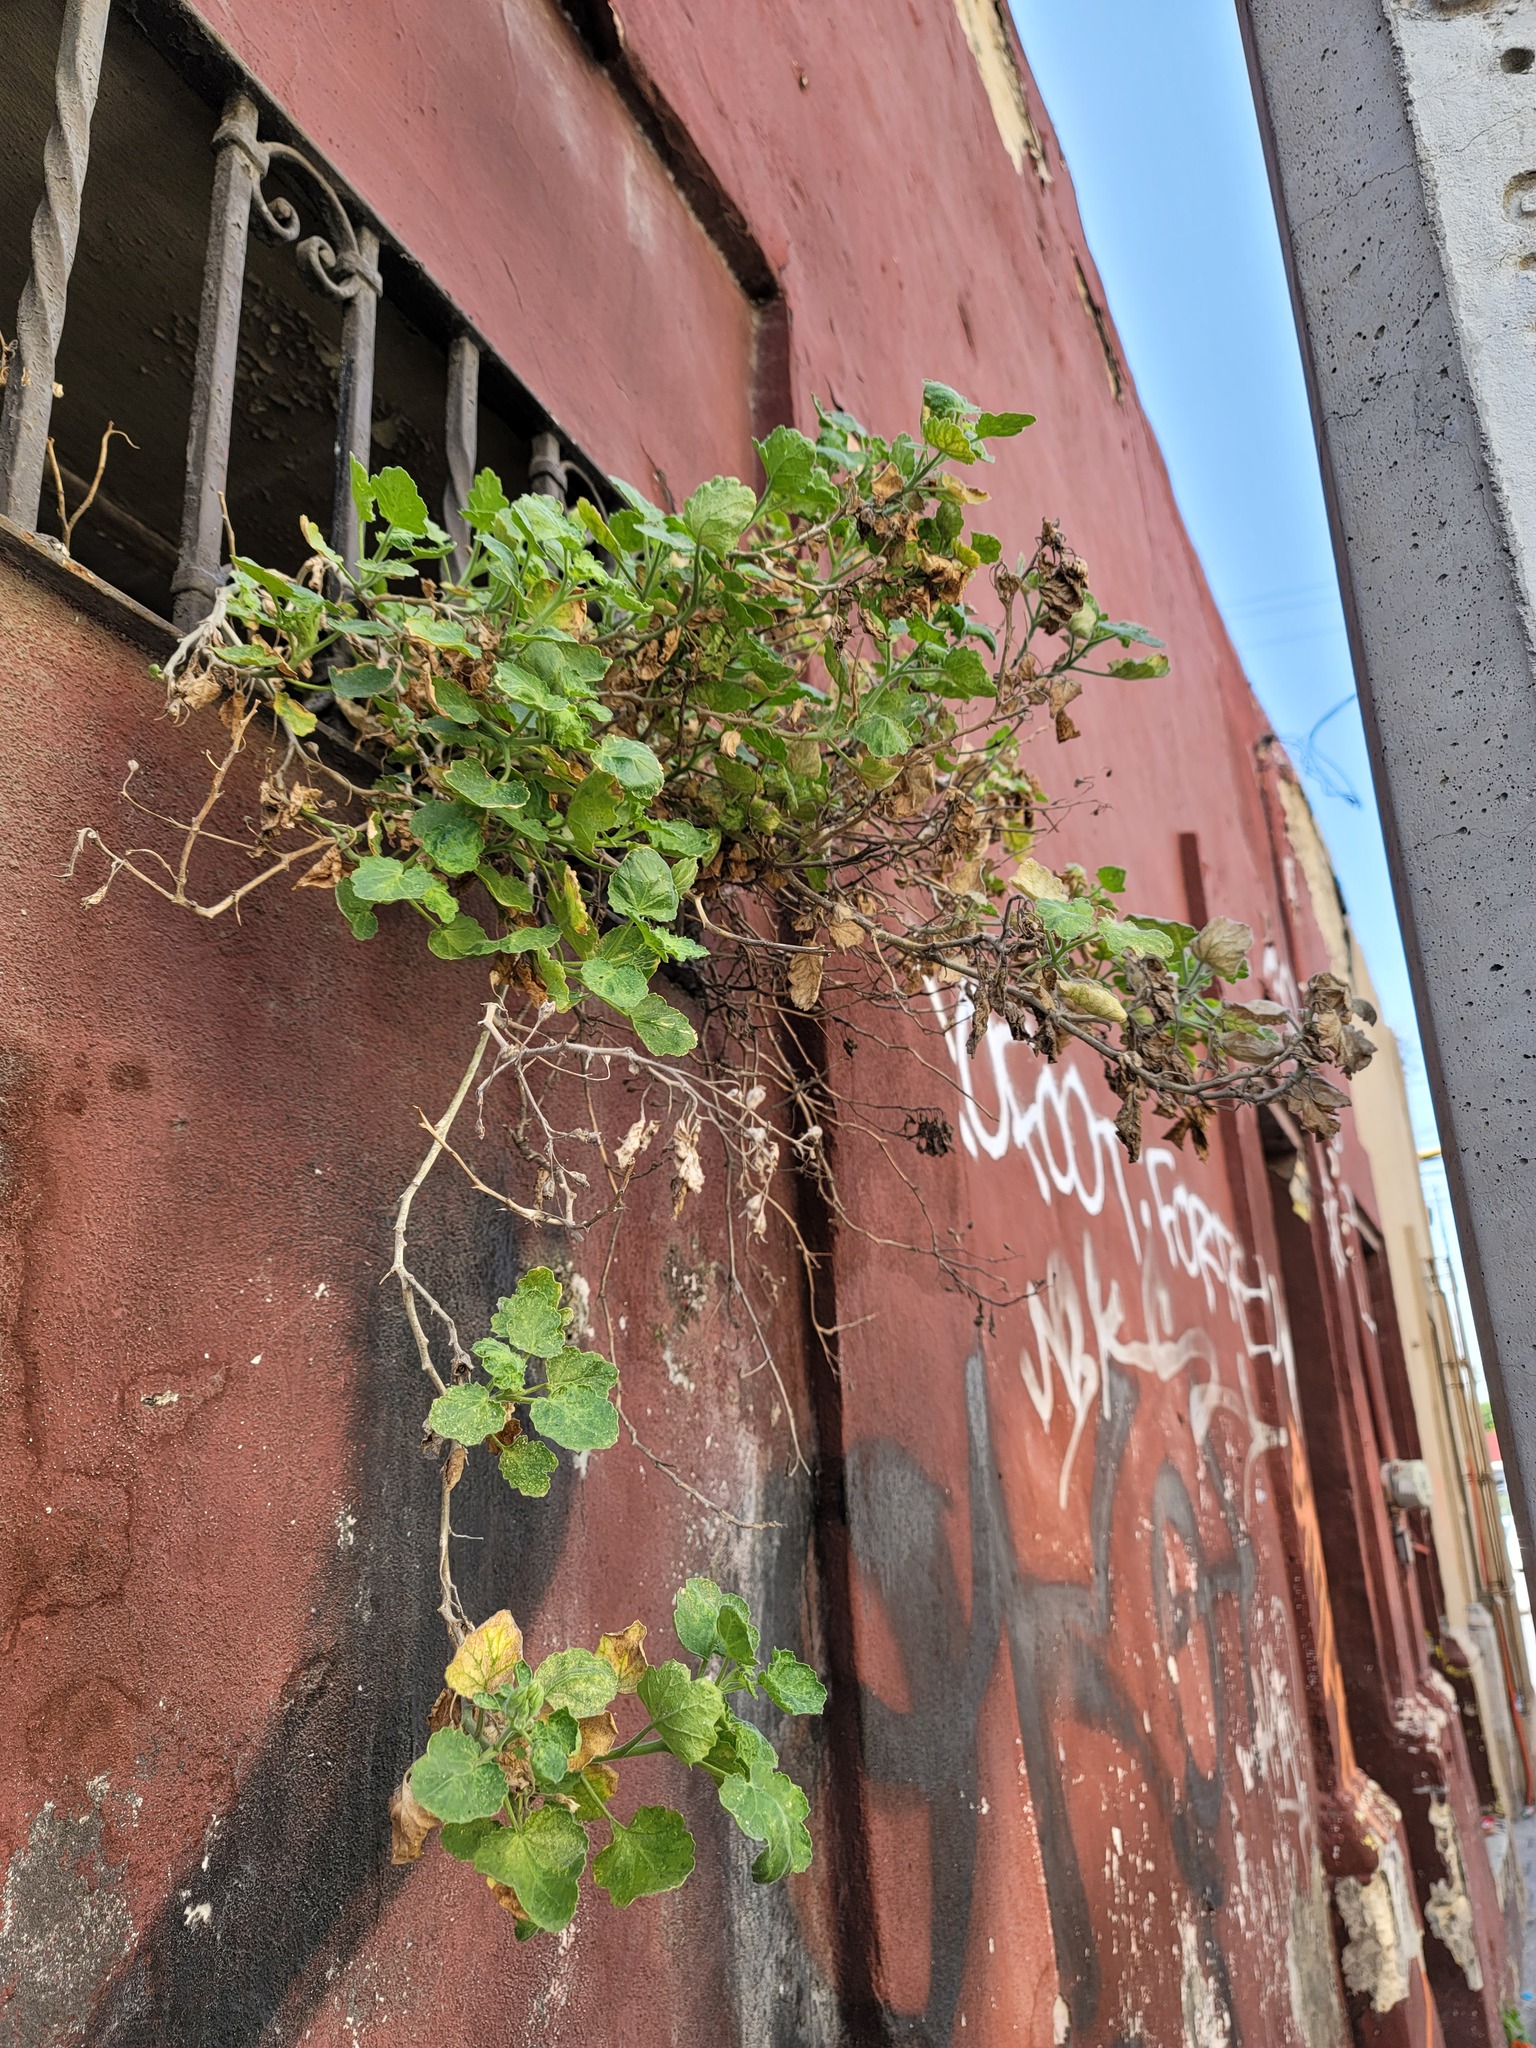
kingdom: Plantae
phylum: Tracheophyta
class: Magnoliopsida
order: Cornales
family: Loasaceae
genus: Eucnide
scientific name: Eucnide lobata
